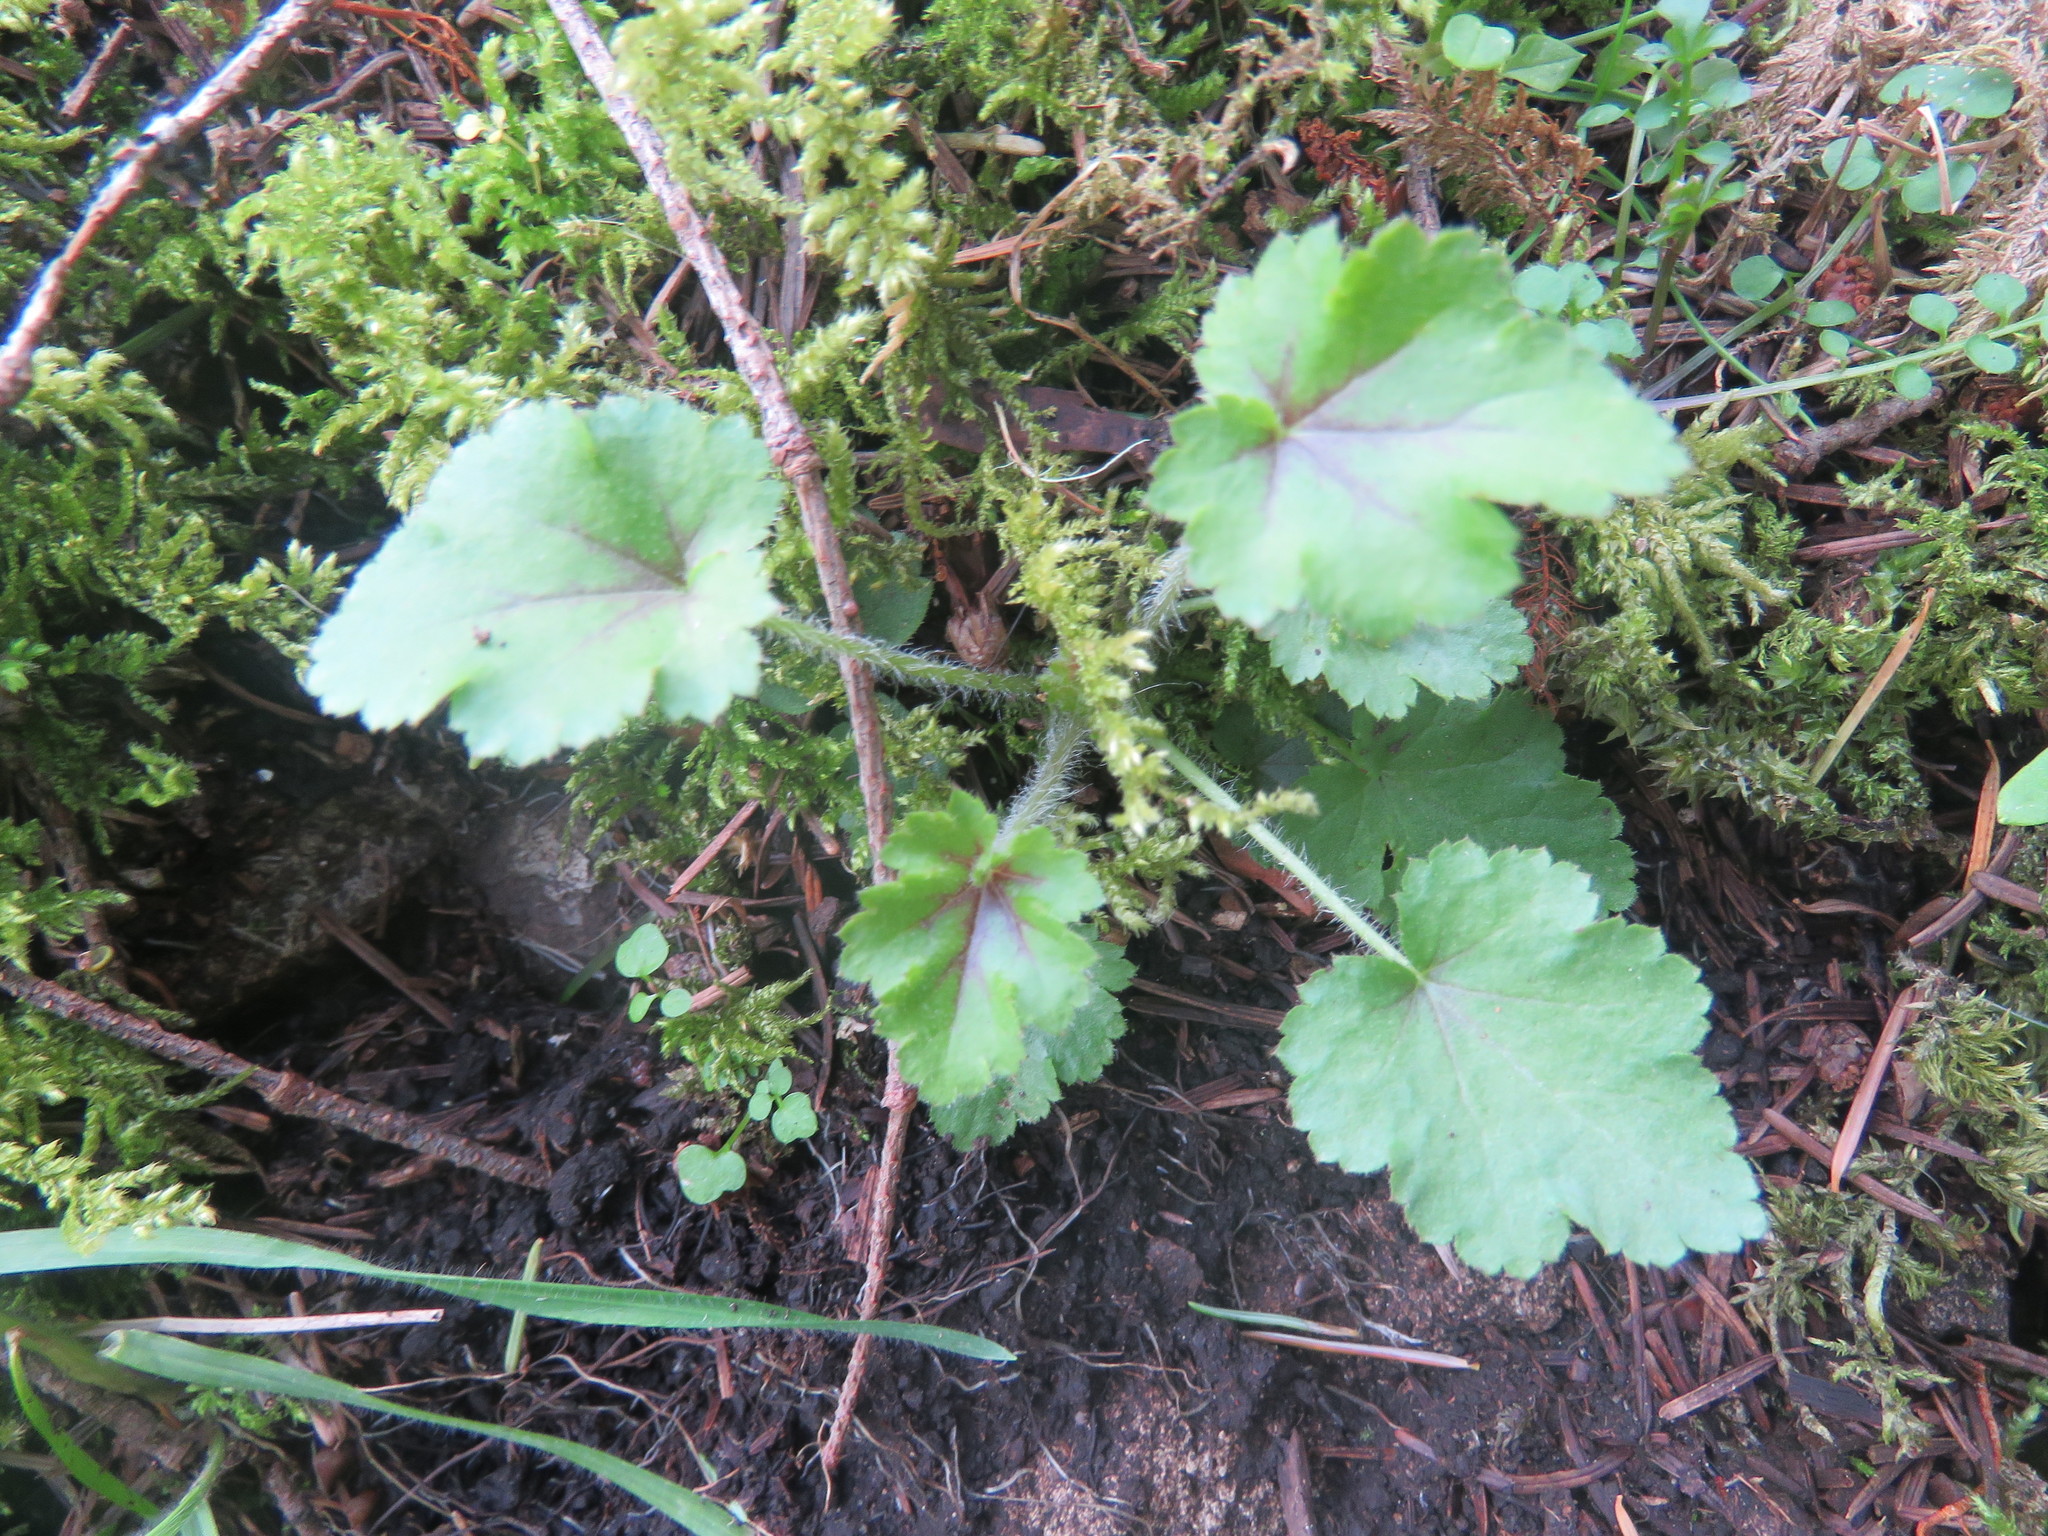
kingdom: Plantae
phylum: Tracheophyta
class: Magnoliopsida
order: Saxifragales
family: Saxifragaceae
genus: Heuchera
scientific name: Heuchera micrantha
